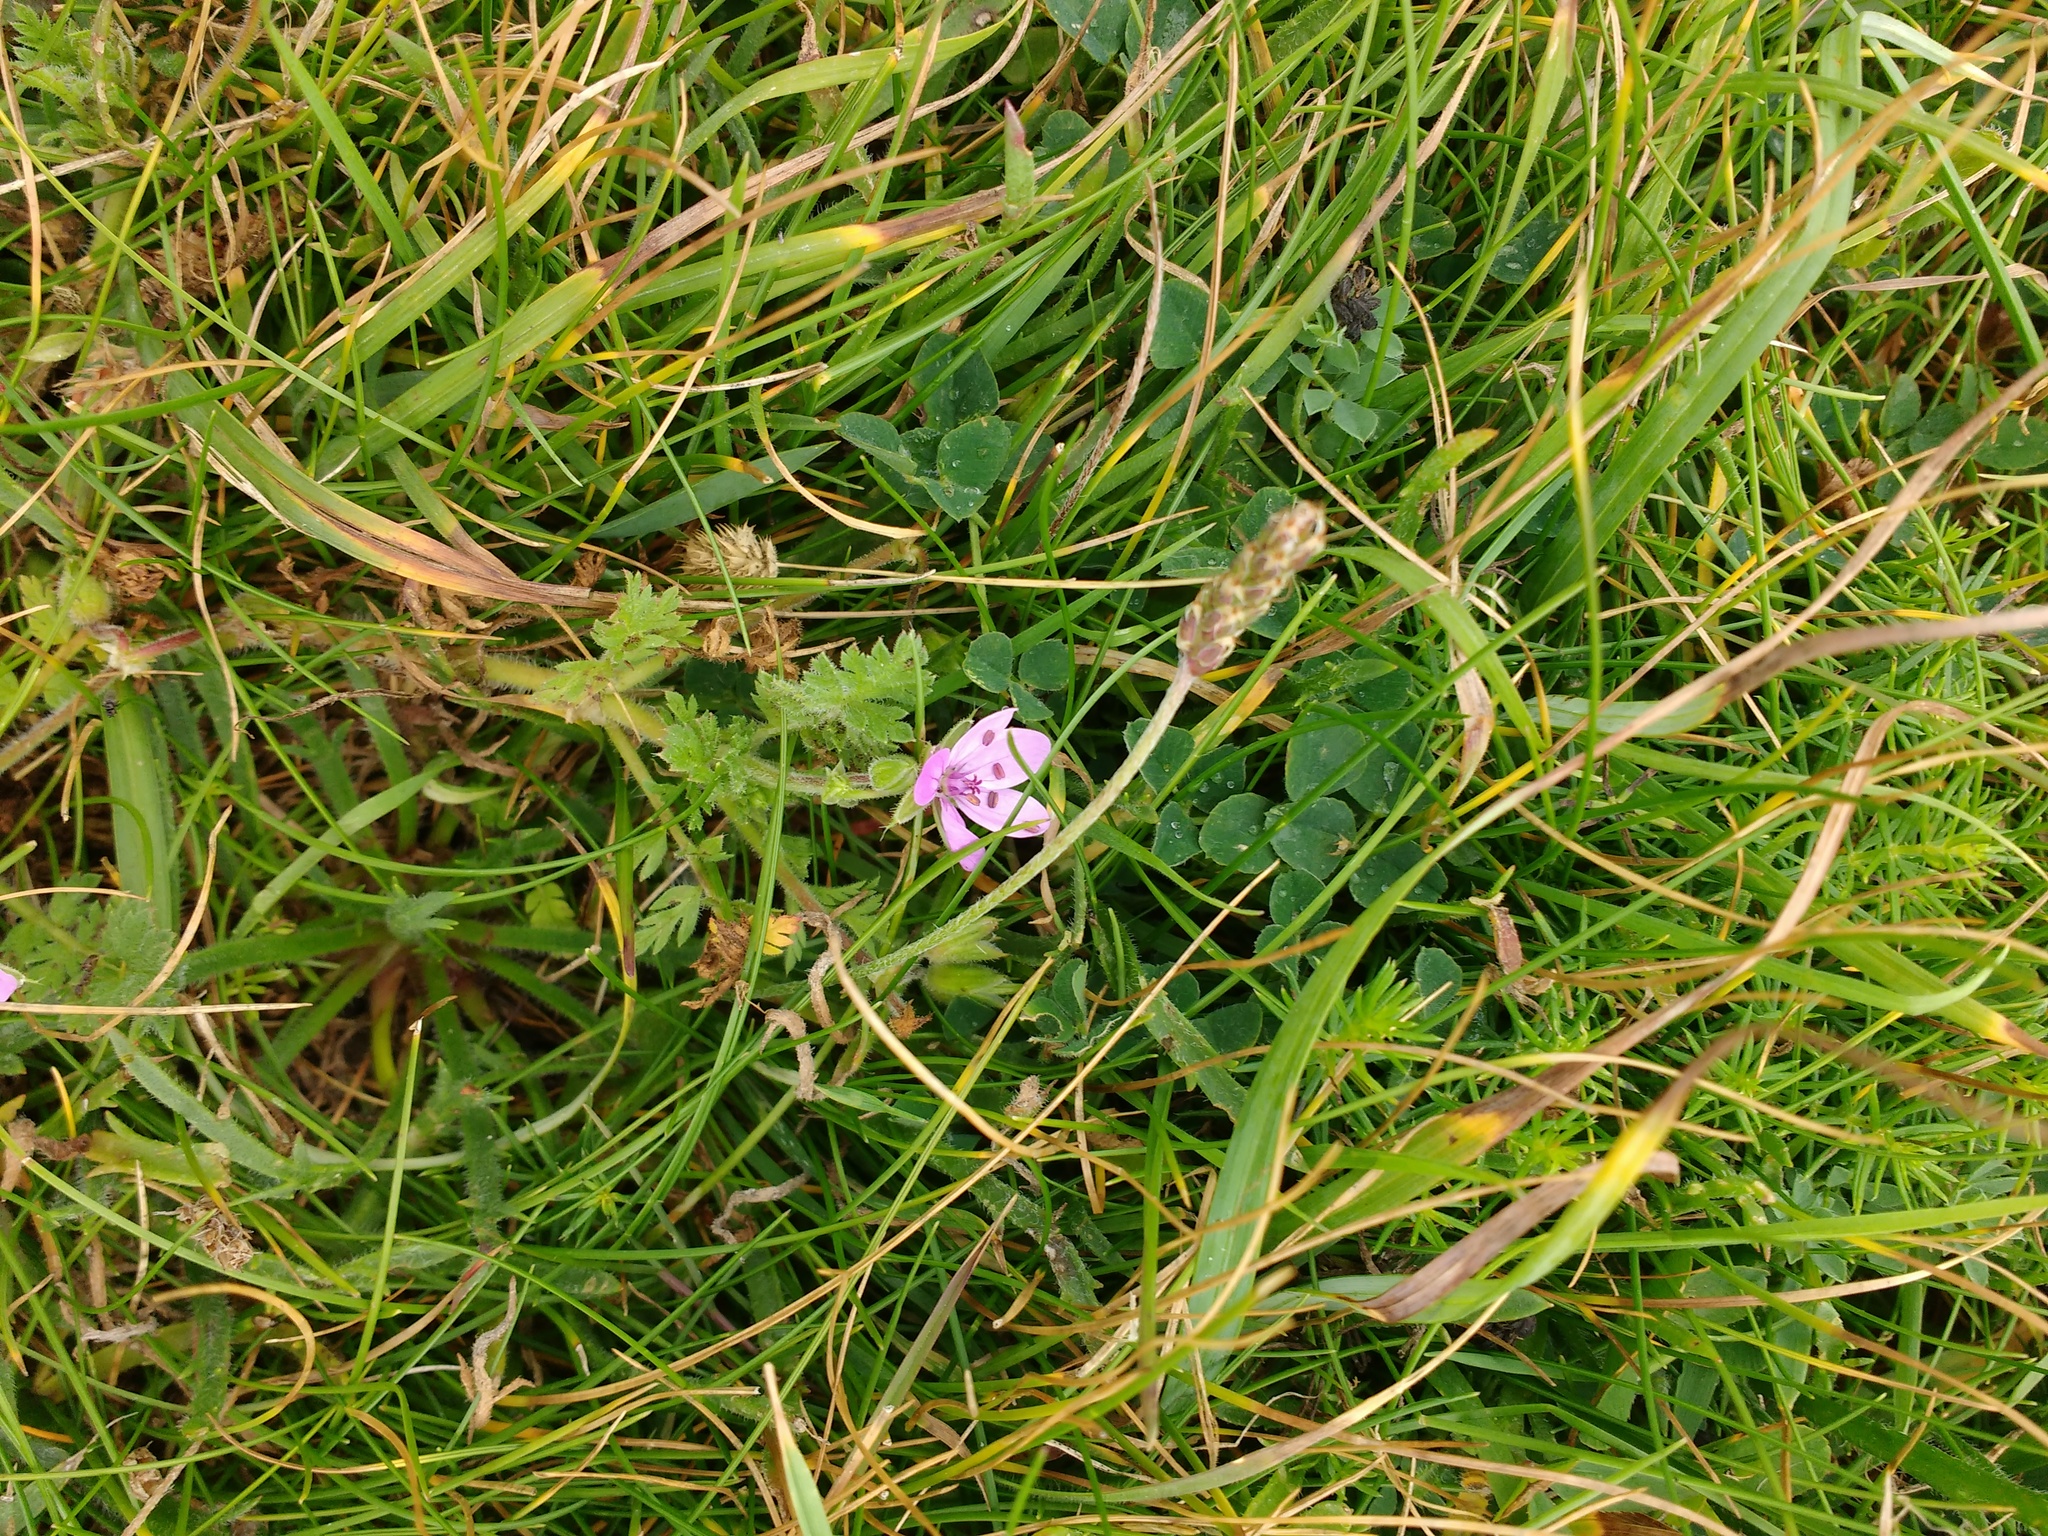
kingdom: Plantae
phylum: Tracheophyta
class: Magnoliopsida
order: Geraniales
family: Geraniaceae
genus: Erodium
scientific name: Erodium cicutarium
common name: Common stork's-bill
